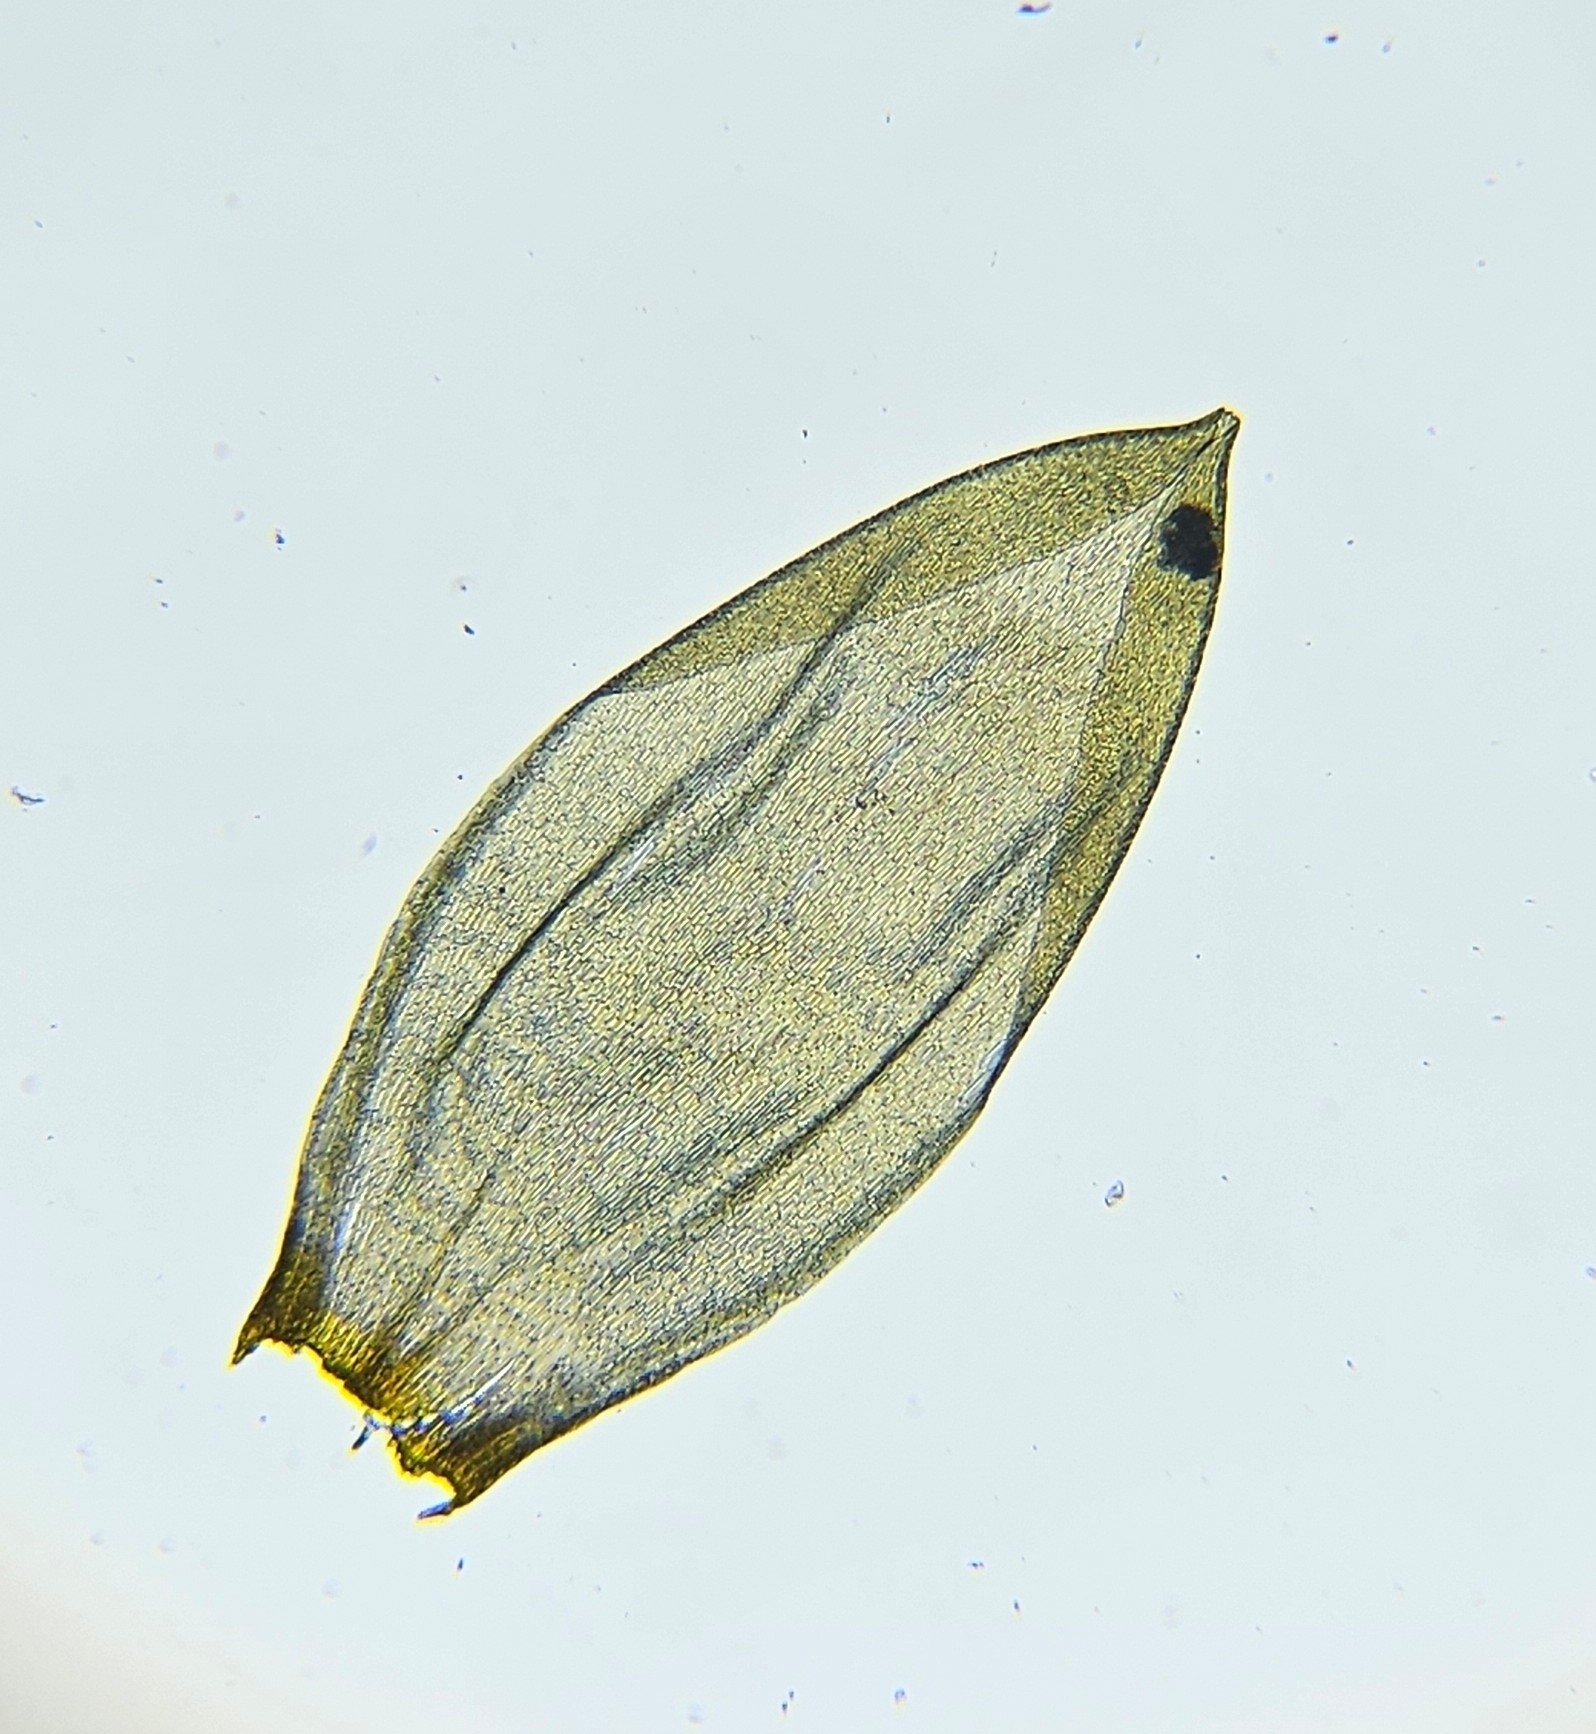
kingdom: Plantae
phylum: Bryophyta
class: Bryopsida
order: Hypnales
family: Hylocomiaceae
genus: Pleurozium
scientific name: Pleurozium schreberi
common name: Red-stemmed feather moss
